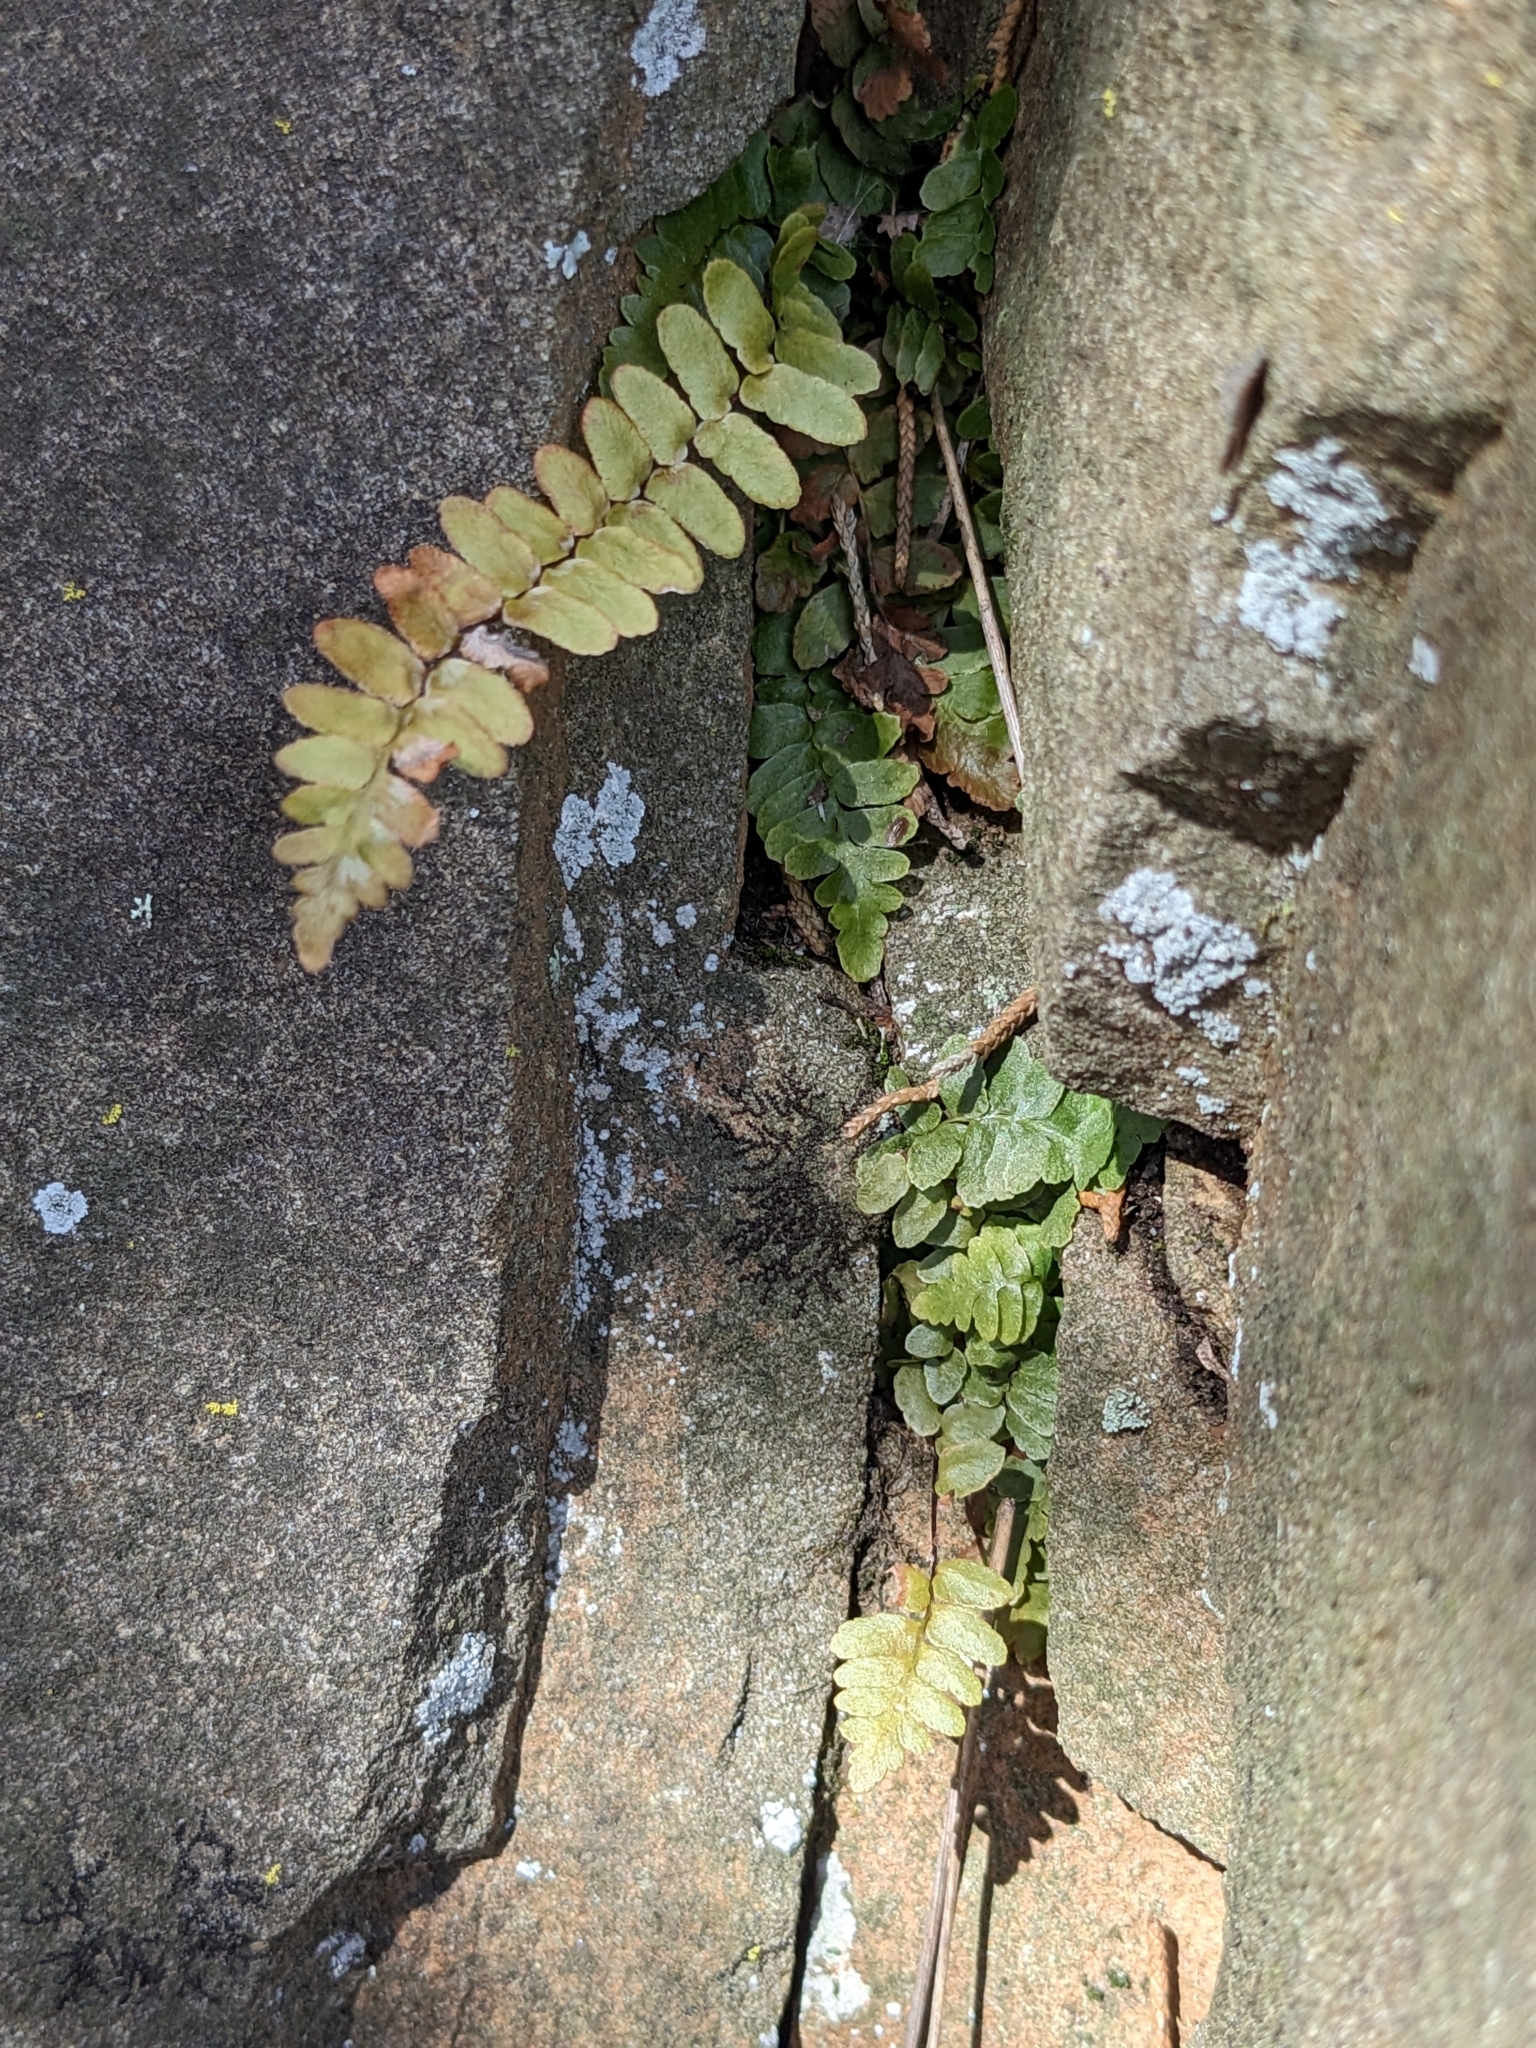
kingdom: Plantae
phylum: Tracheophyta
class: Polypodiopsida
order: Polypodiales
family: Aspleniaceae
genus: Asplenium
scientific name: Asplenium platyneuron
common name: Ebony spleenwort
